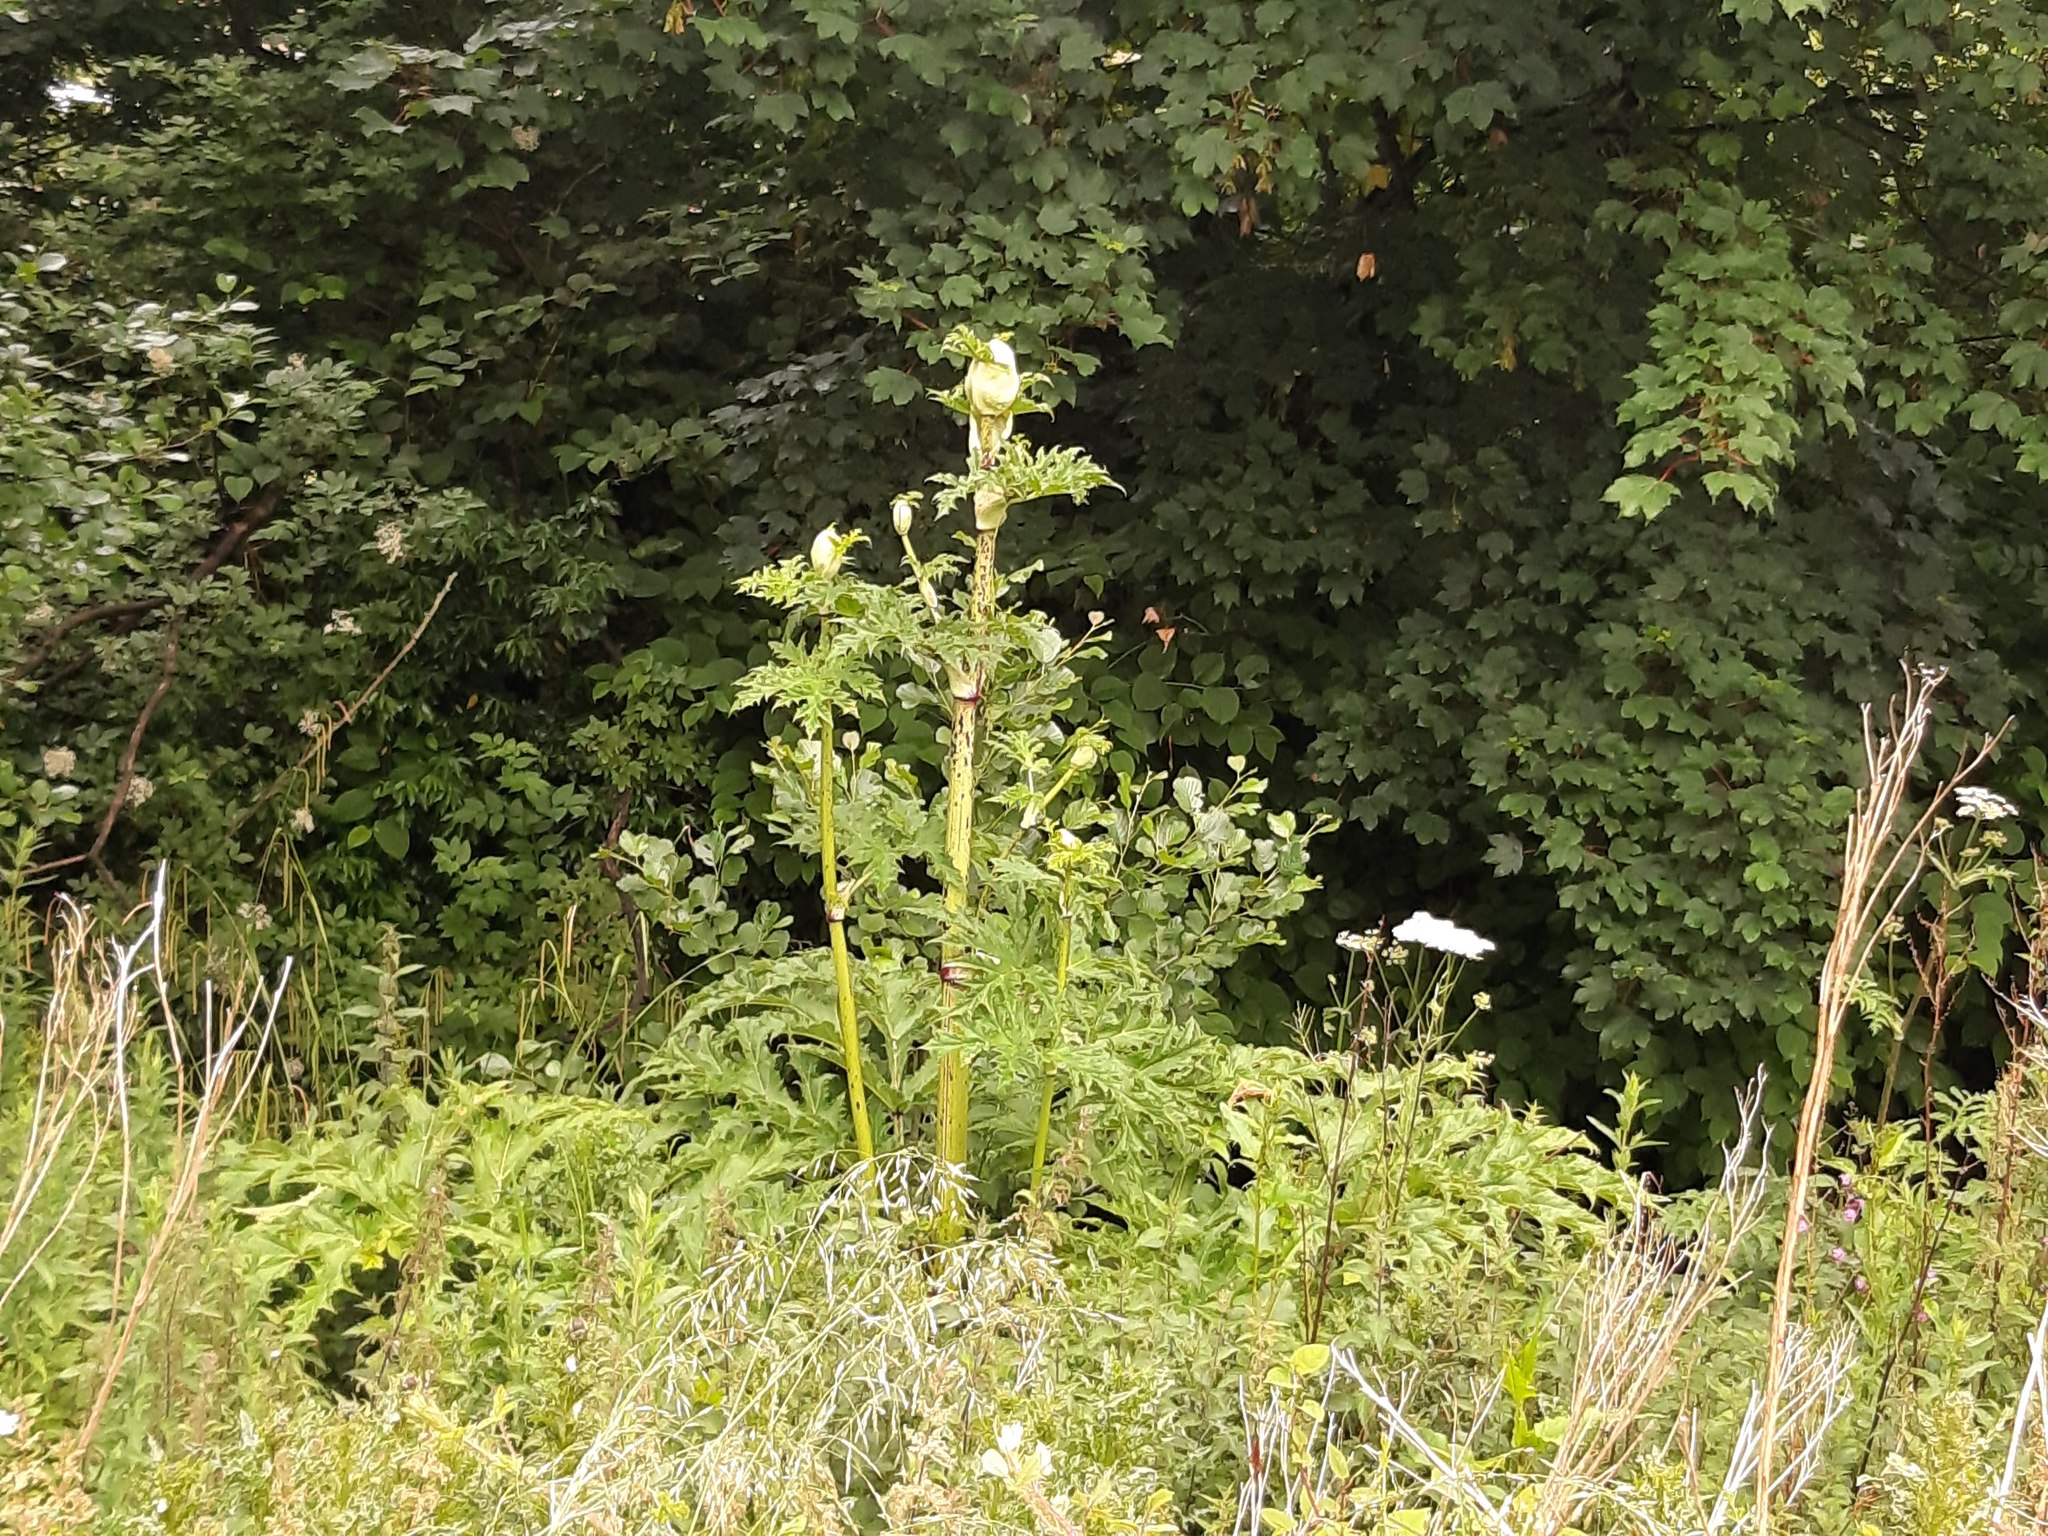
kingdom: Plantae
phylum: Tracheophyta
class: Magnoliopsida
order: Apiales
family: Apiaceae
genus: Heracleum
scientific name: Heracleum mantegazzianum
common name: Giant hogweed
